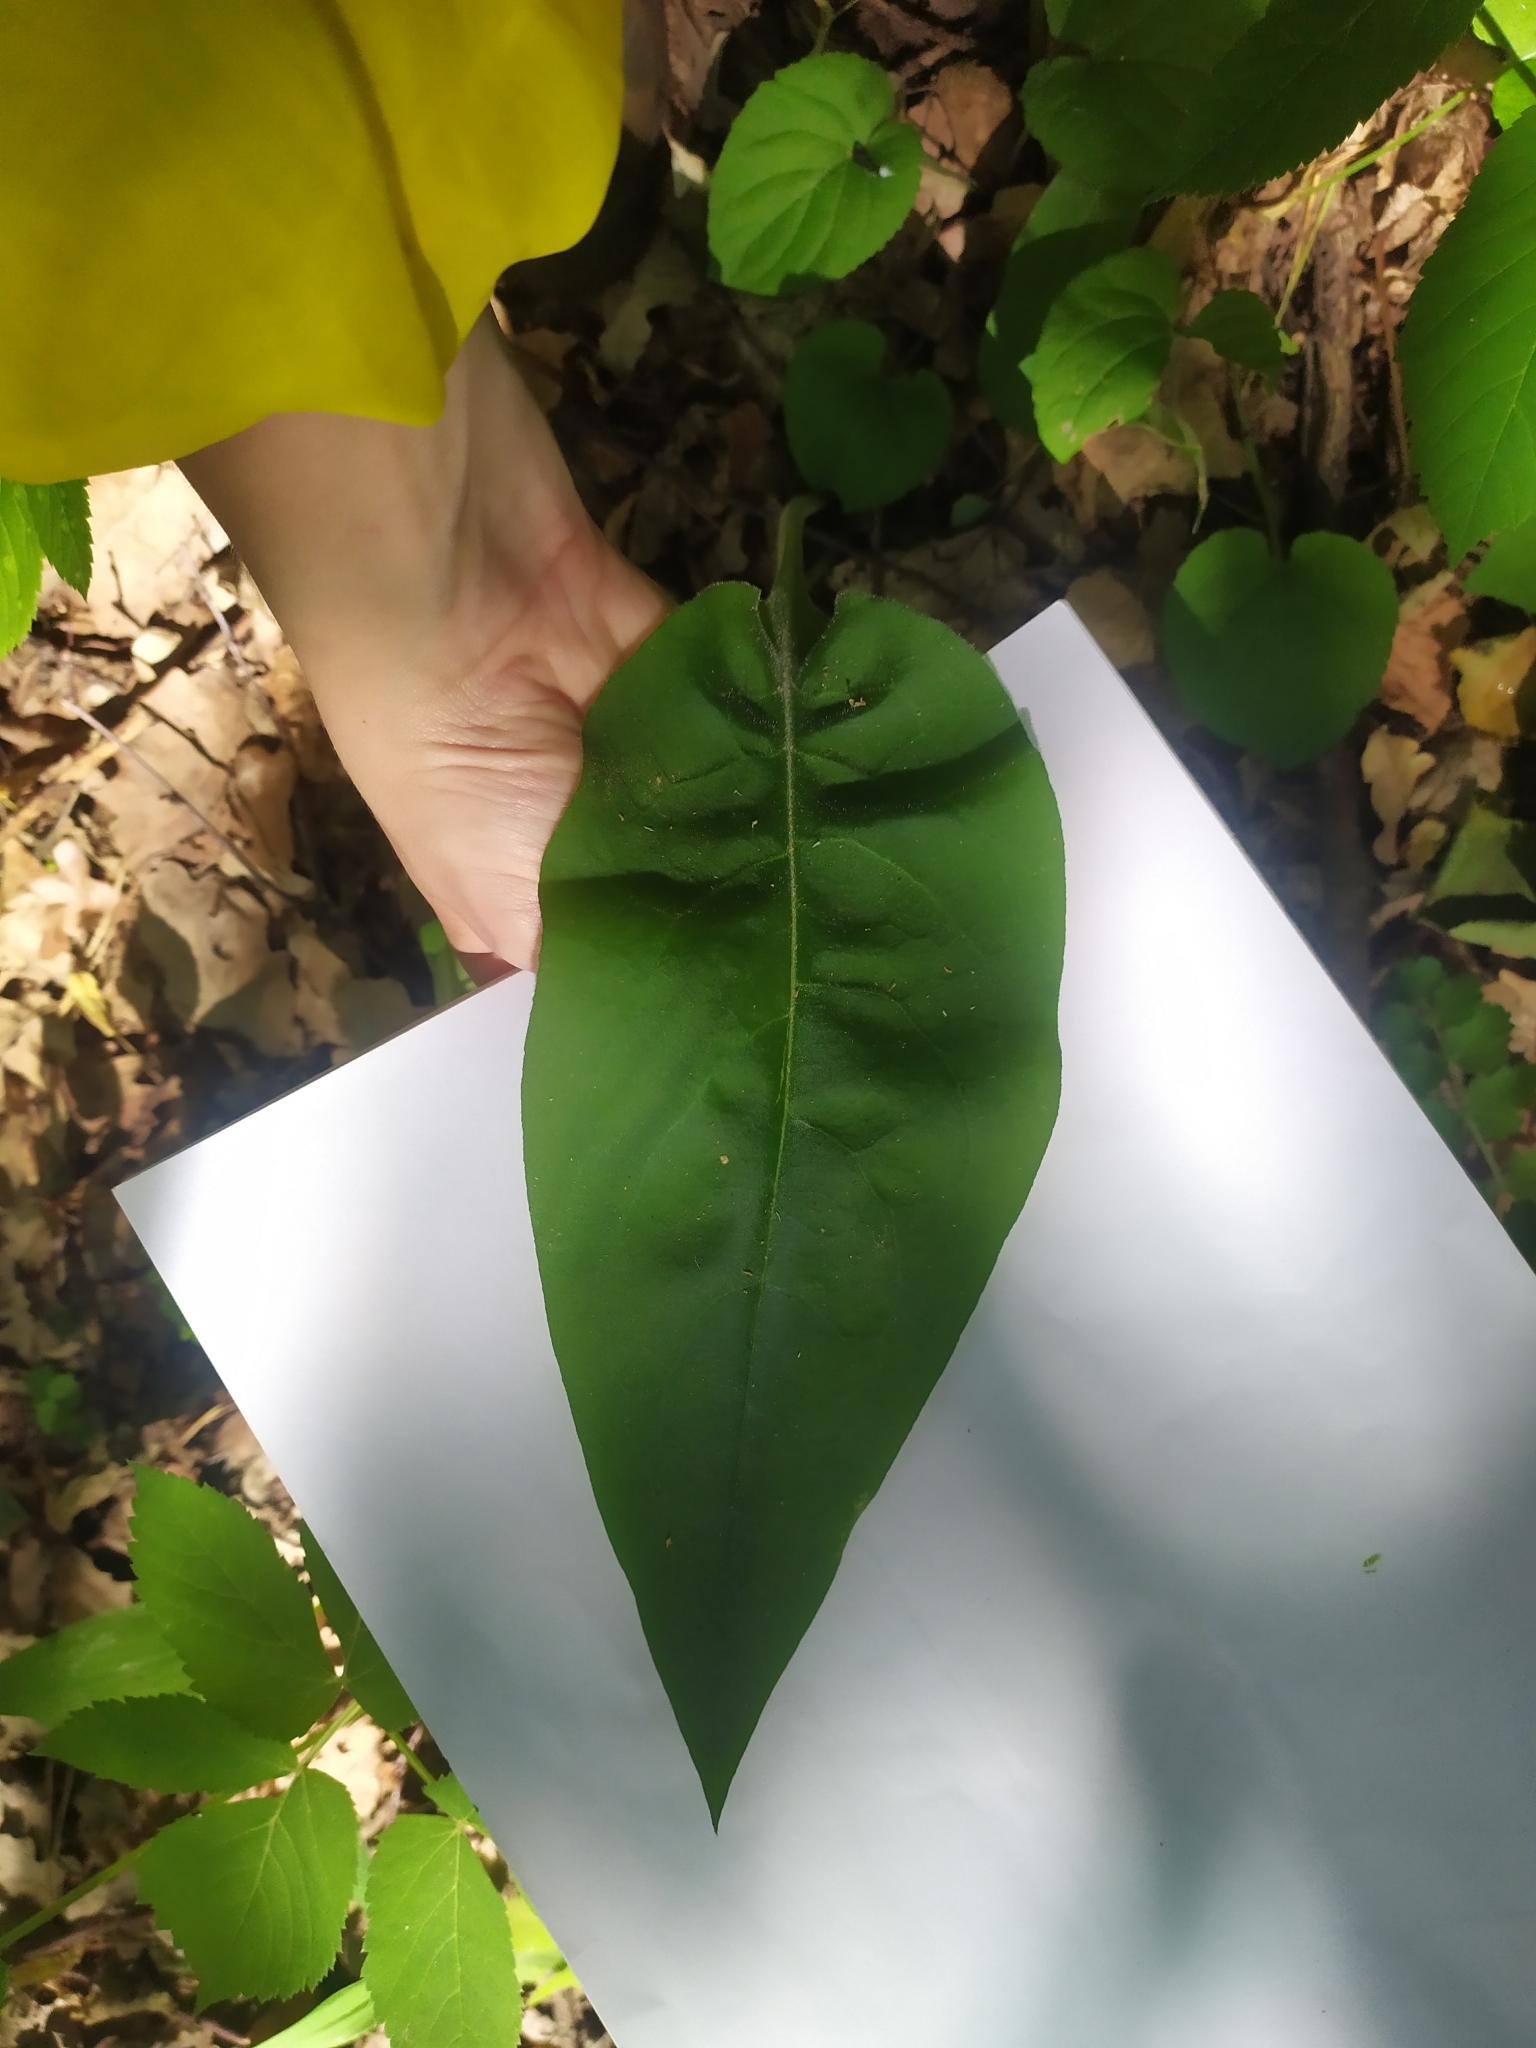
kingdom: Plantae
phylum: Tracheophyta
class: Magnoliopsida
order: Boraginales
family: Boraginaceae
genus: Pulmonaria
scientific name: Pulmonaria obscura
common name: Suffolk lungwort
